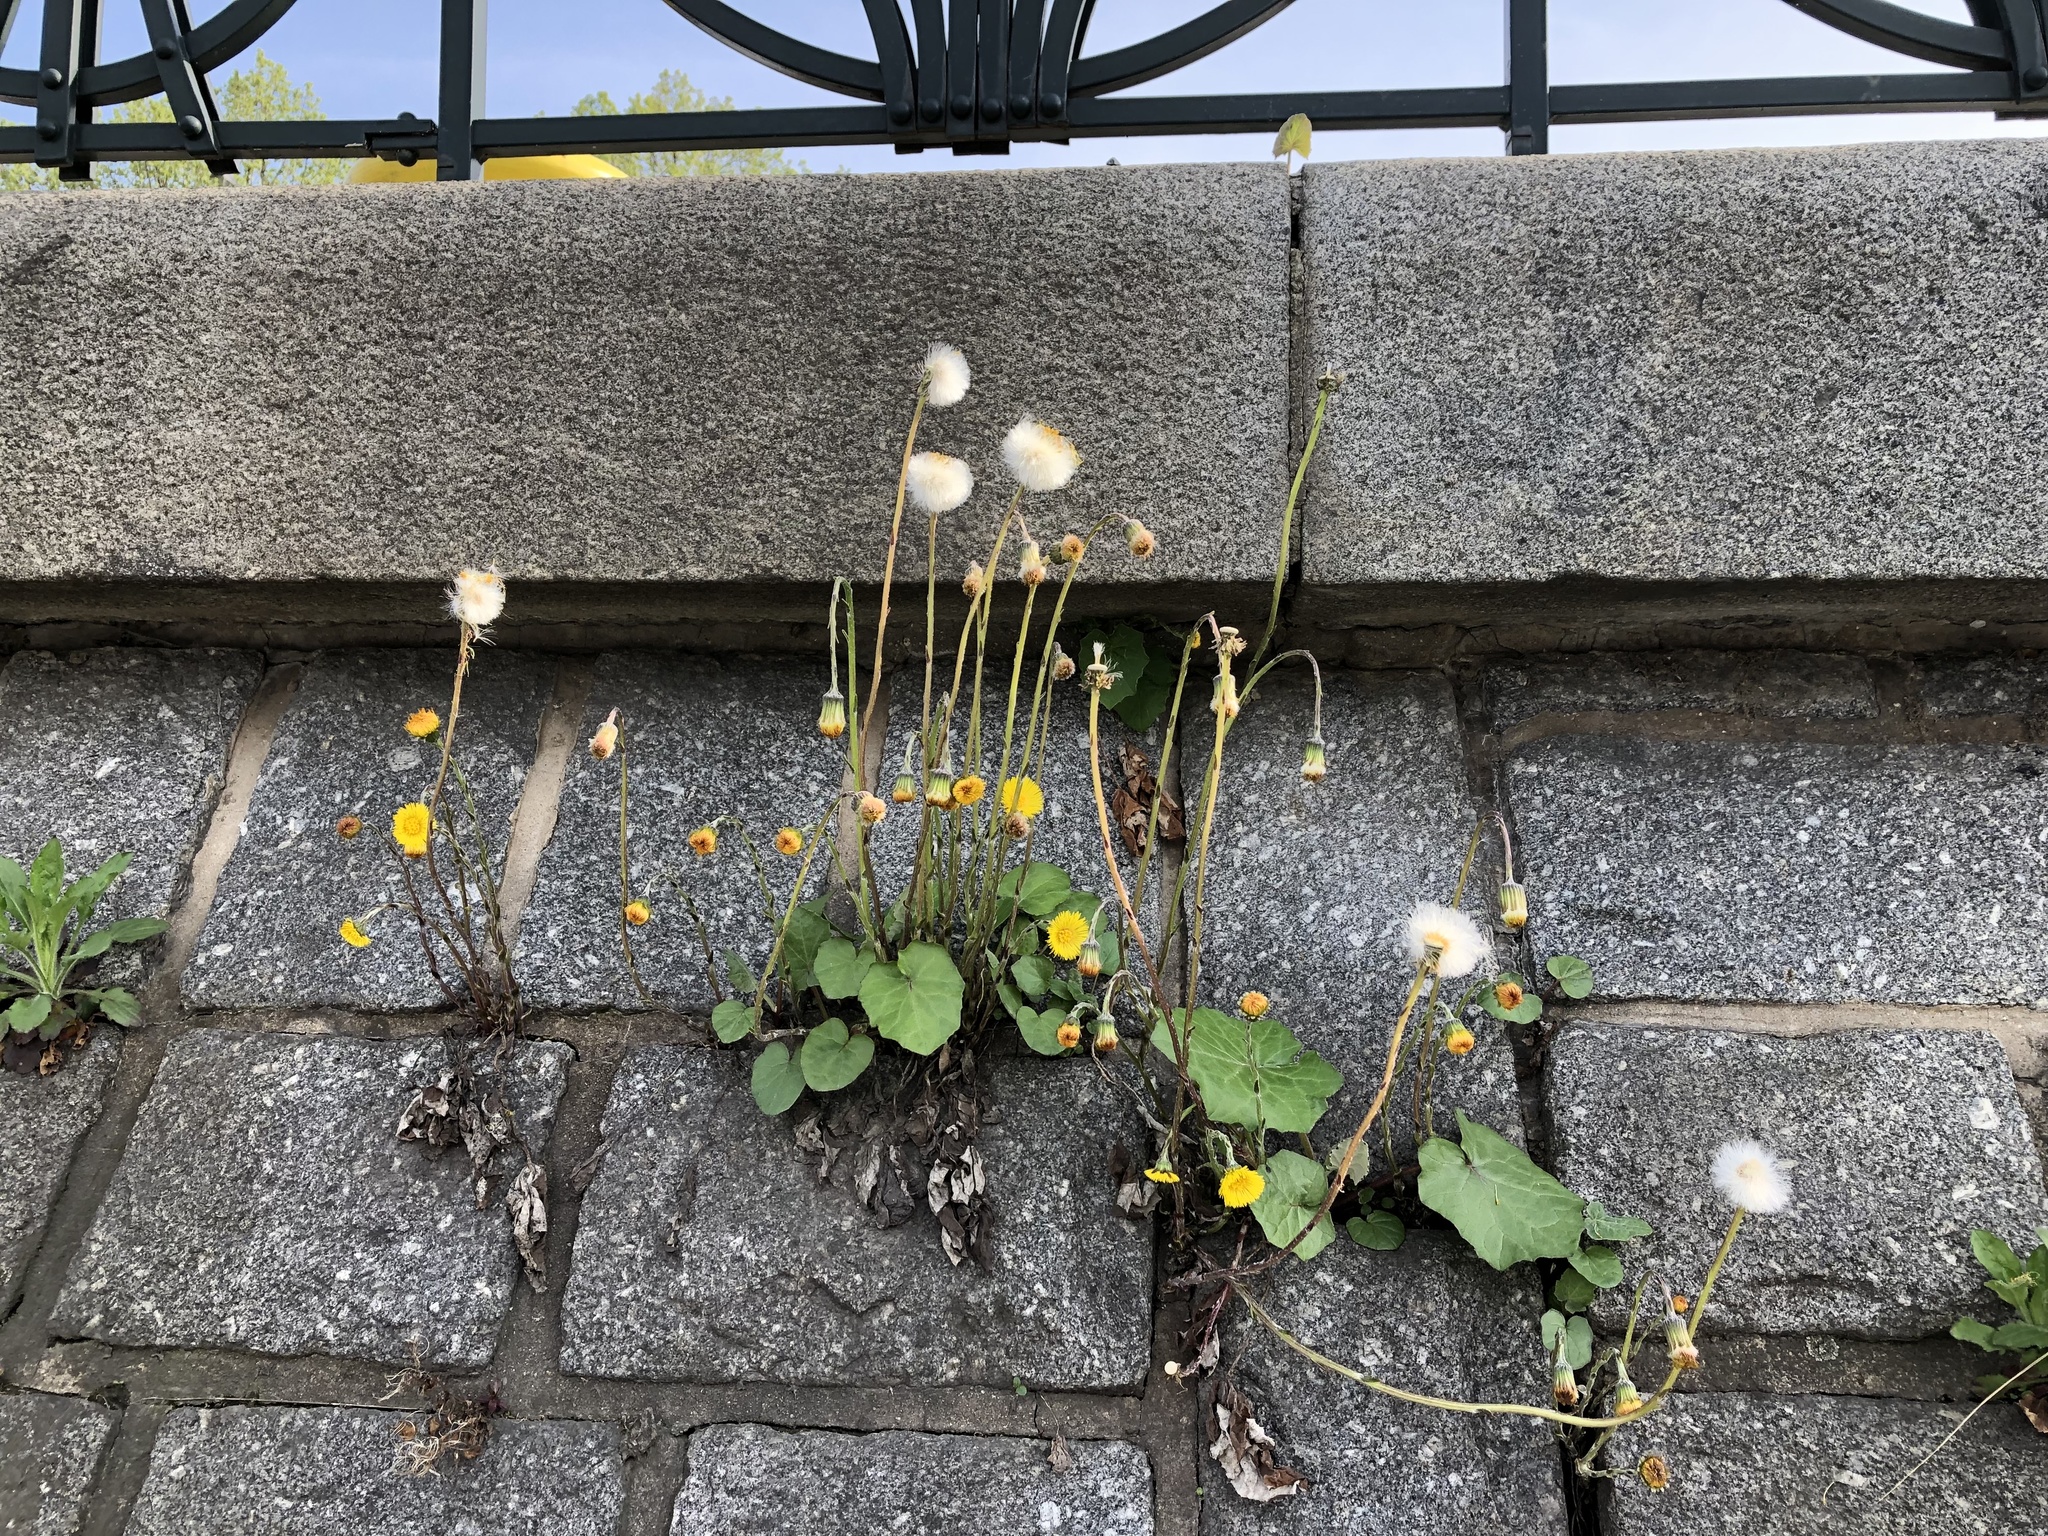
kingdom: Plantae
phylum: Tracheophyta
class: Magnoliopsida
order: Asterales
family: Asteraceae
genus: Tussilago
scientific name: Tussilago farfara
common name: Coltsfoot
